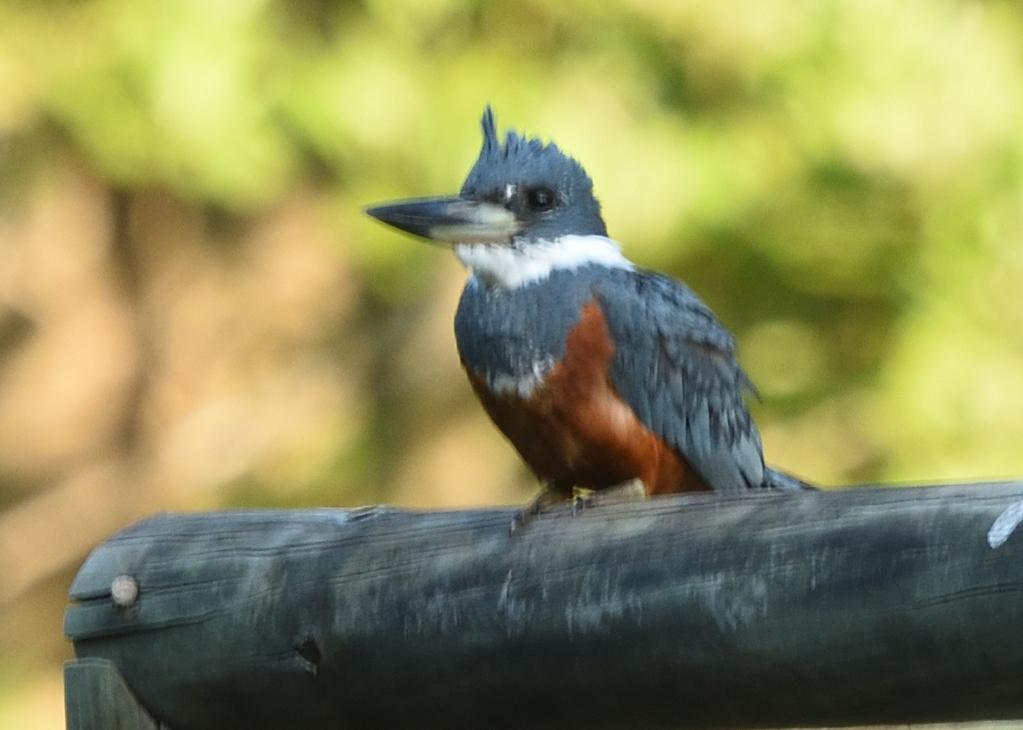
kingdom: Animalia
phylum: Chordata
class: Aves
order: Coraciiformes
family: Alcedinidae
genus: Megaceryle
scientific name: Megaceryle torquata
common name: Ringed kingfisher
